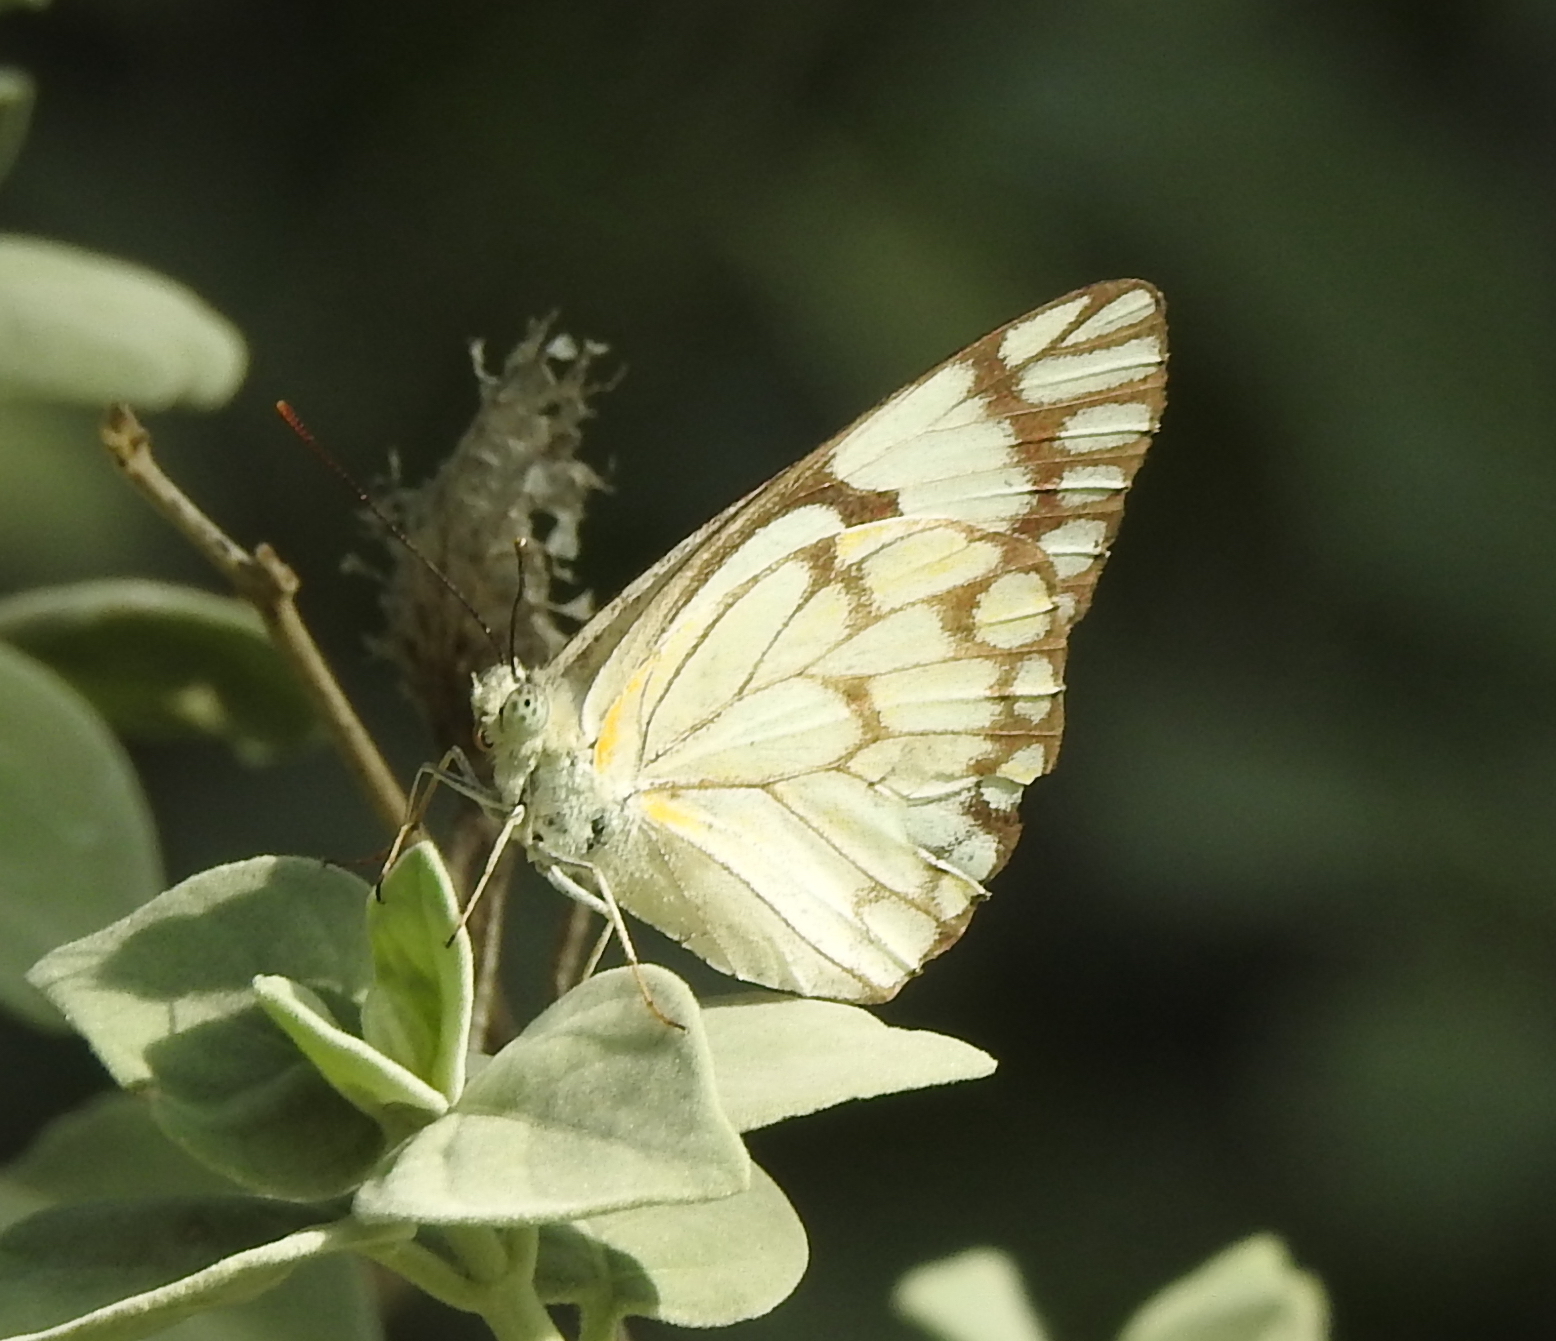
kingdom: Animalia
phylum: Arthropoda
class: Insecta
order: Lepidoptera
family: Pieridae
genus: Belenois
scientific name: Belenois aurota
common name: Brown-veined white
